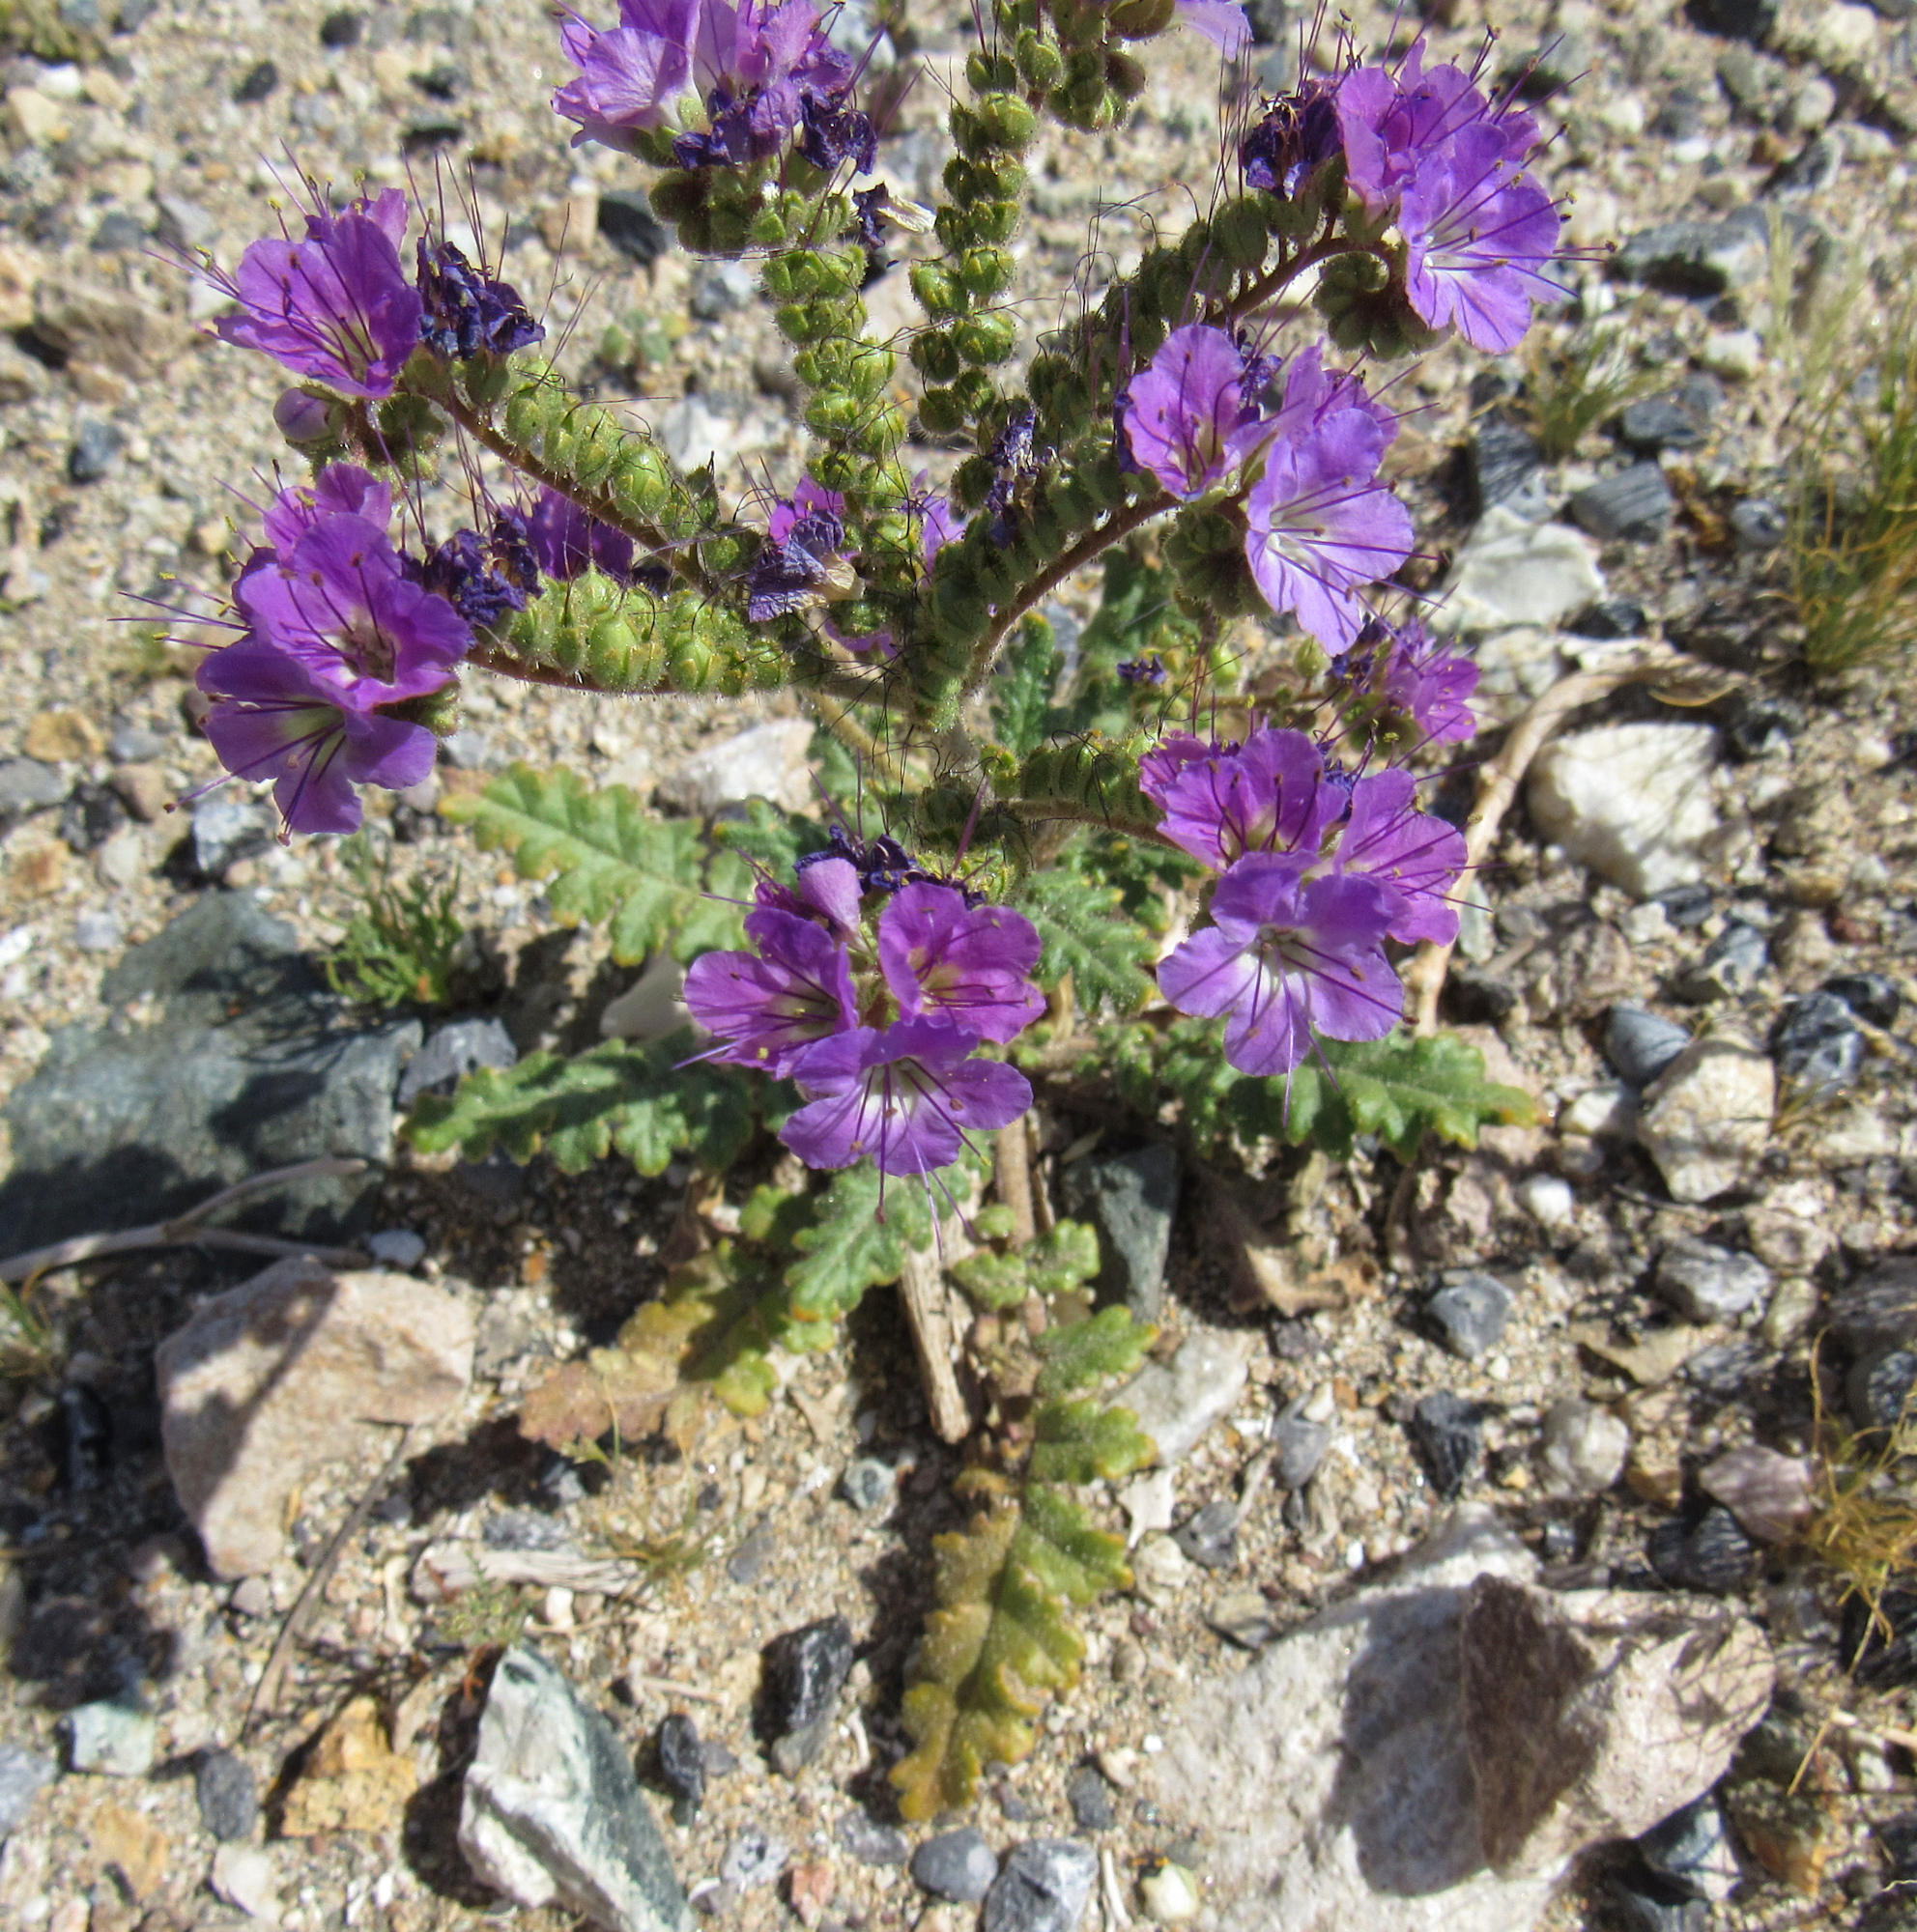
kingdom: Plantae
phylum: Tracheophyta
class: Magnoliopsida
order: Boraginales
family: Hydrophyllaceae
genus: Phacelia
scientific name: Phacelia crenulata
